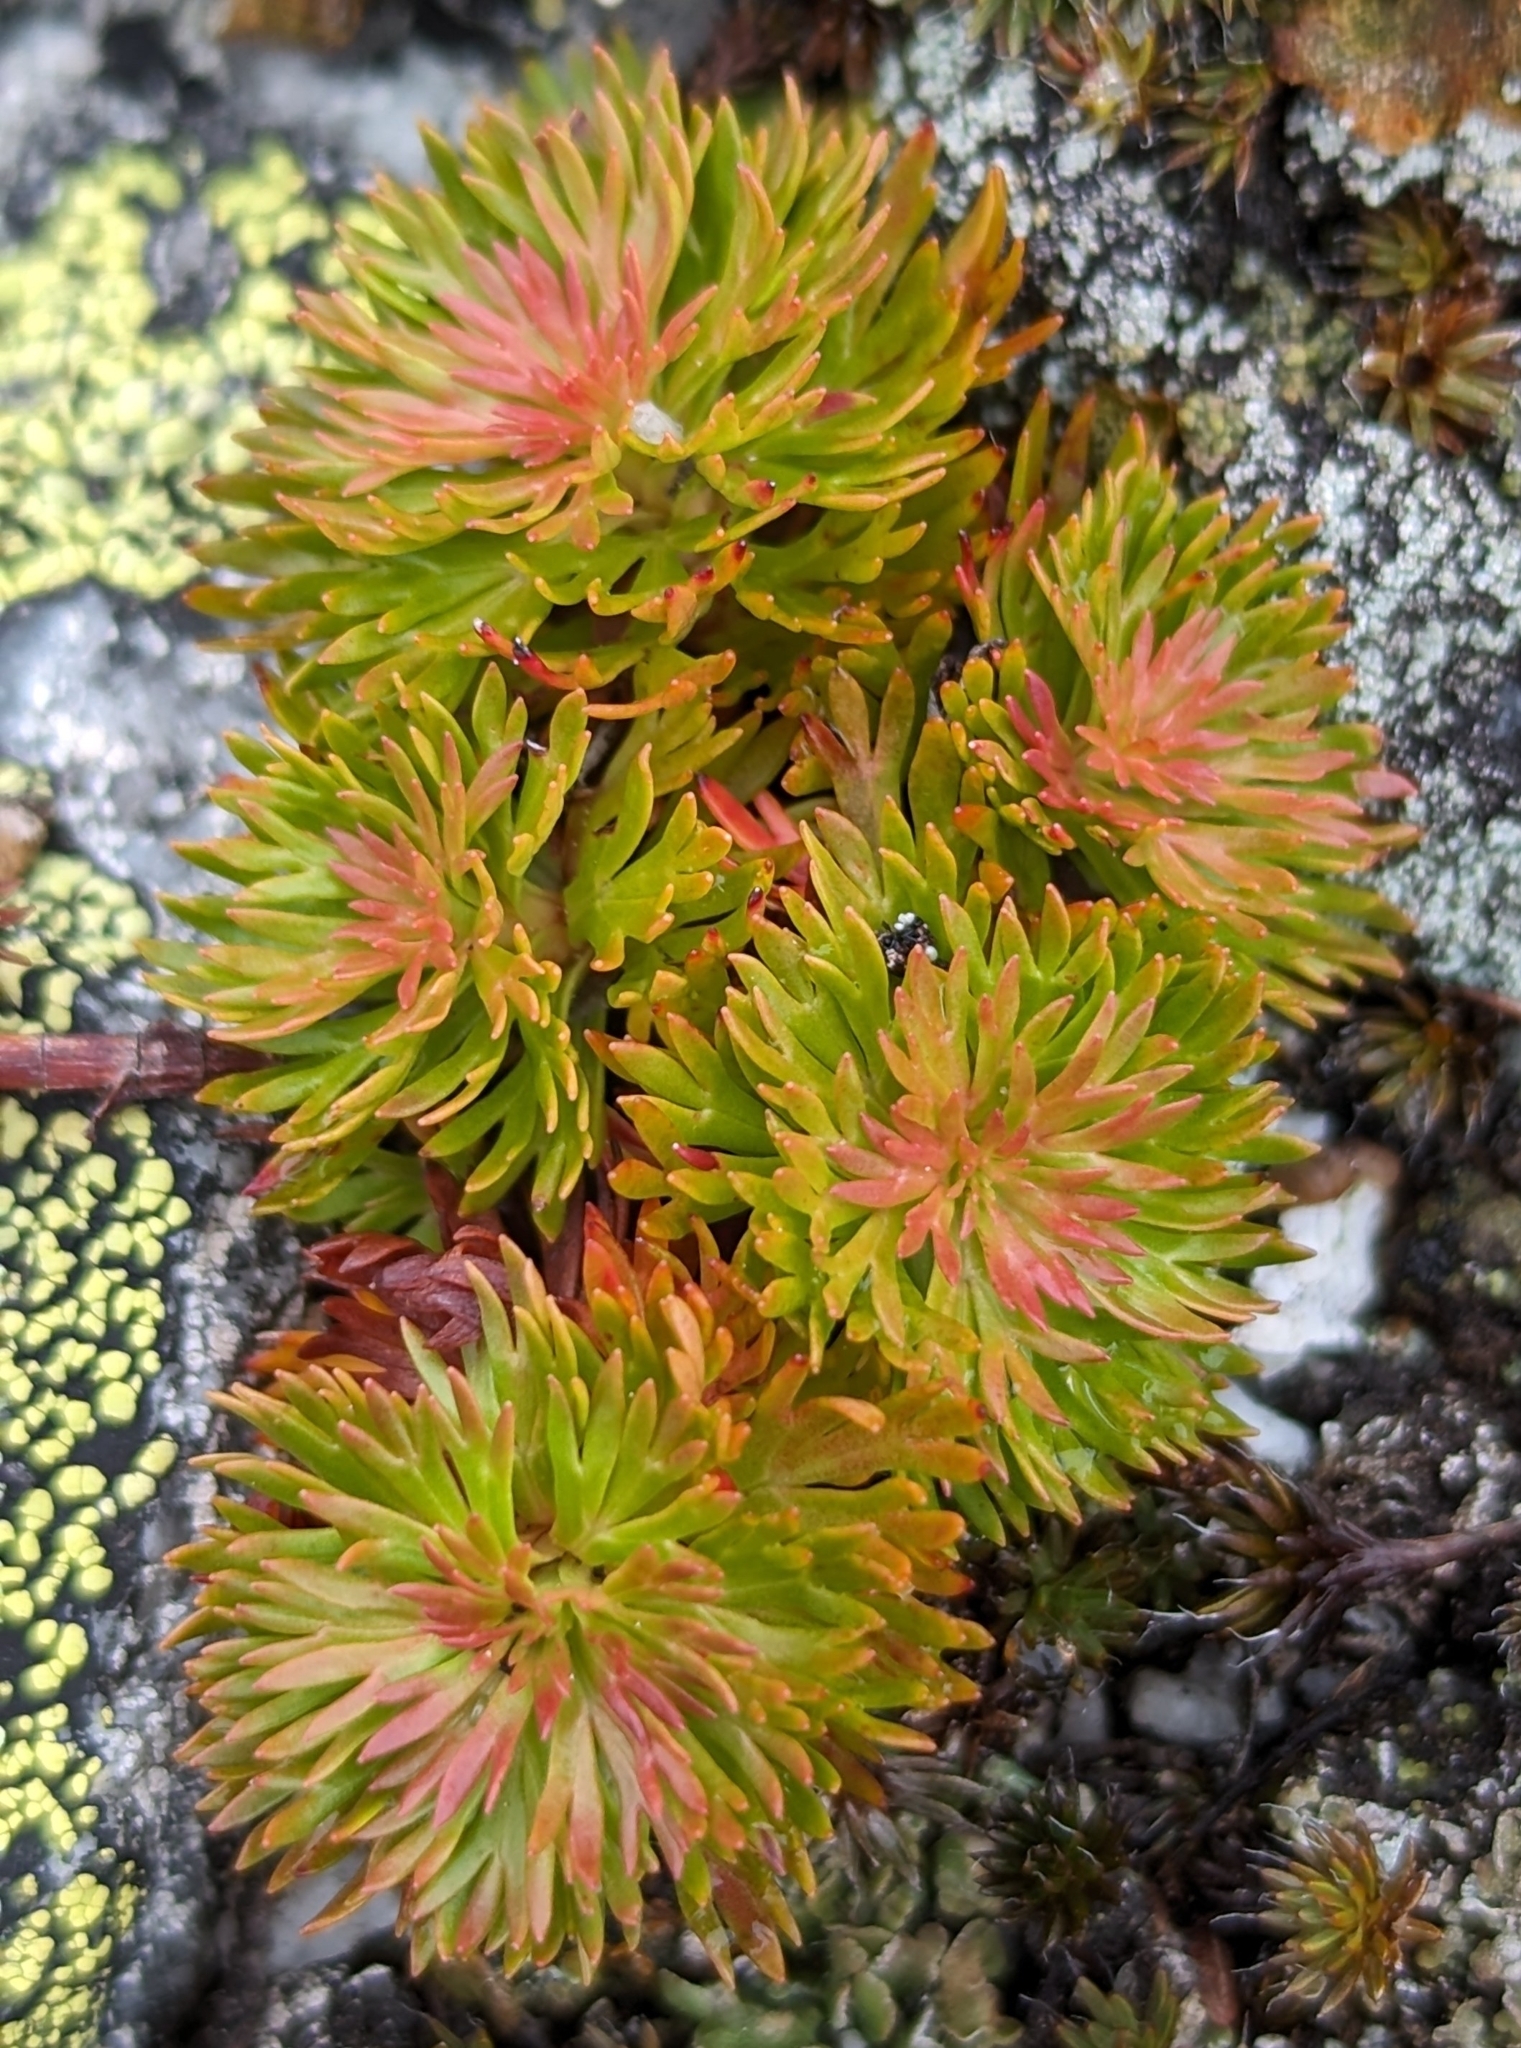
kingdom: Plantae
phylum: Tracheophyta
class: Magnoliopsida
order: Rosales
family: Rosaceae
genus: Luetkea
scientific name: Luetkea pectinata
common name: Partridgefoot
